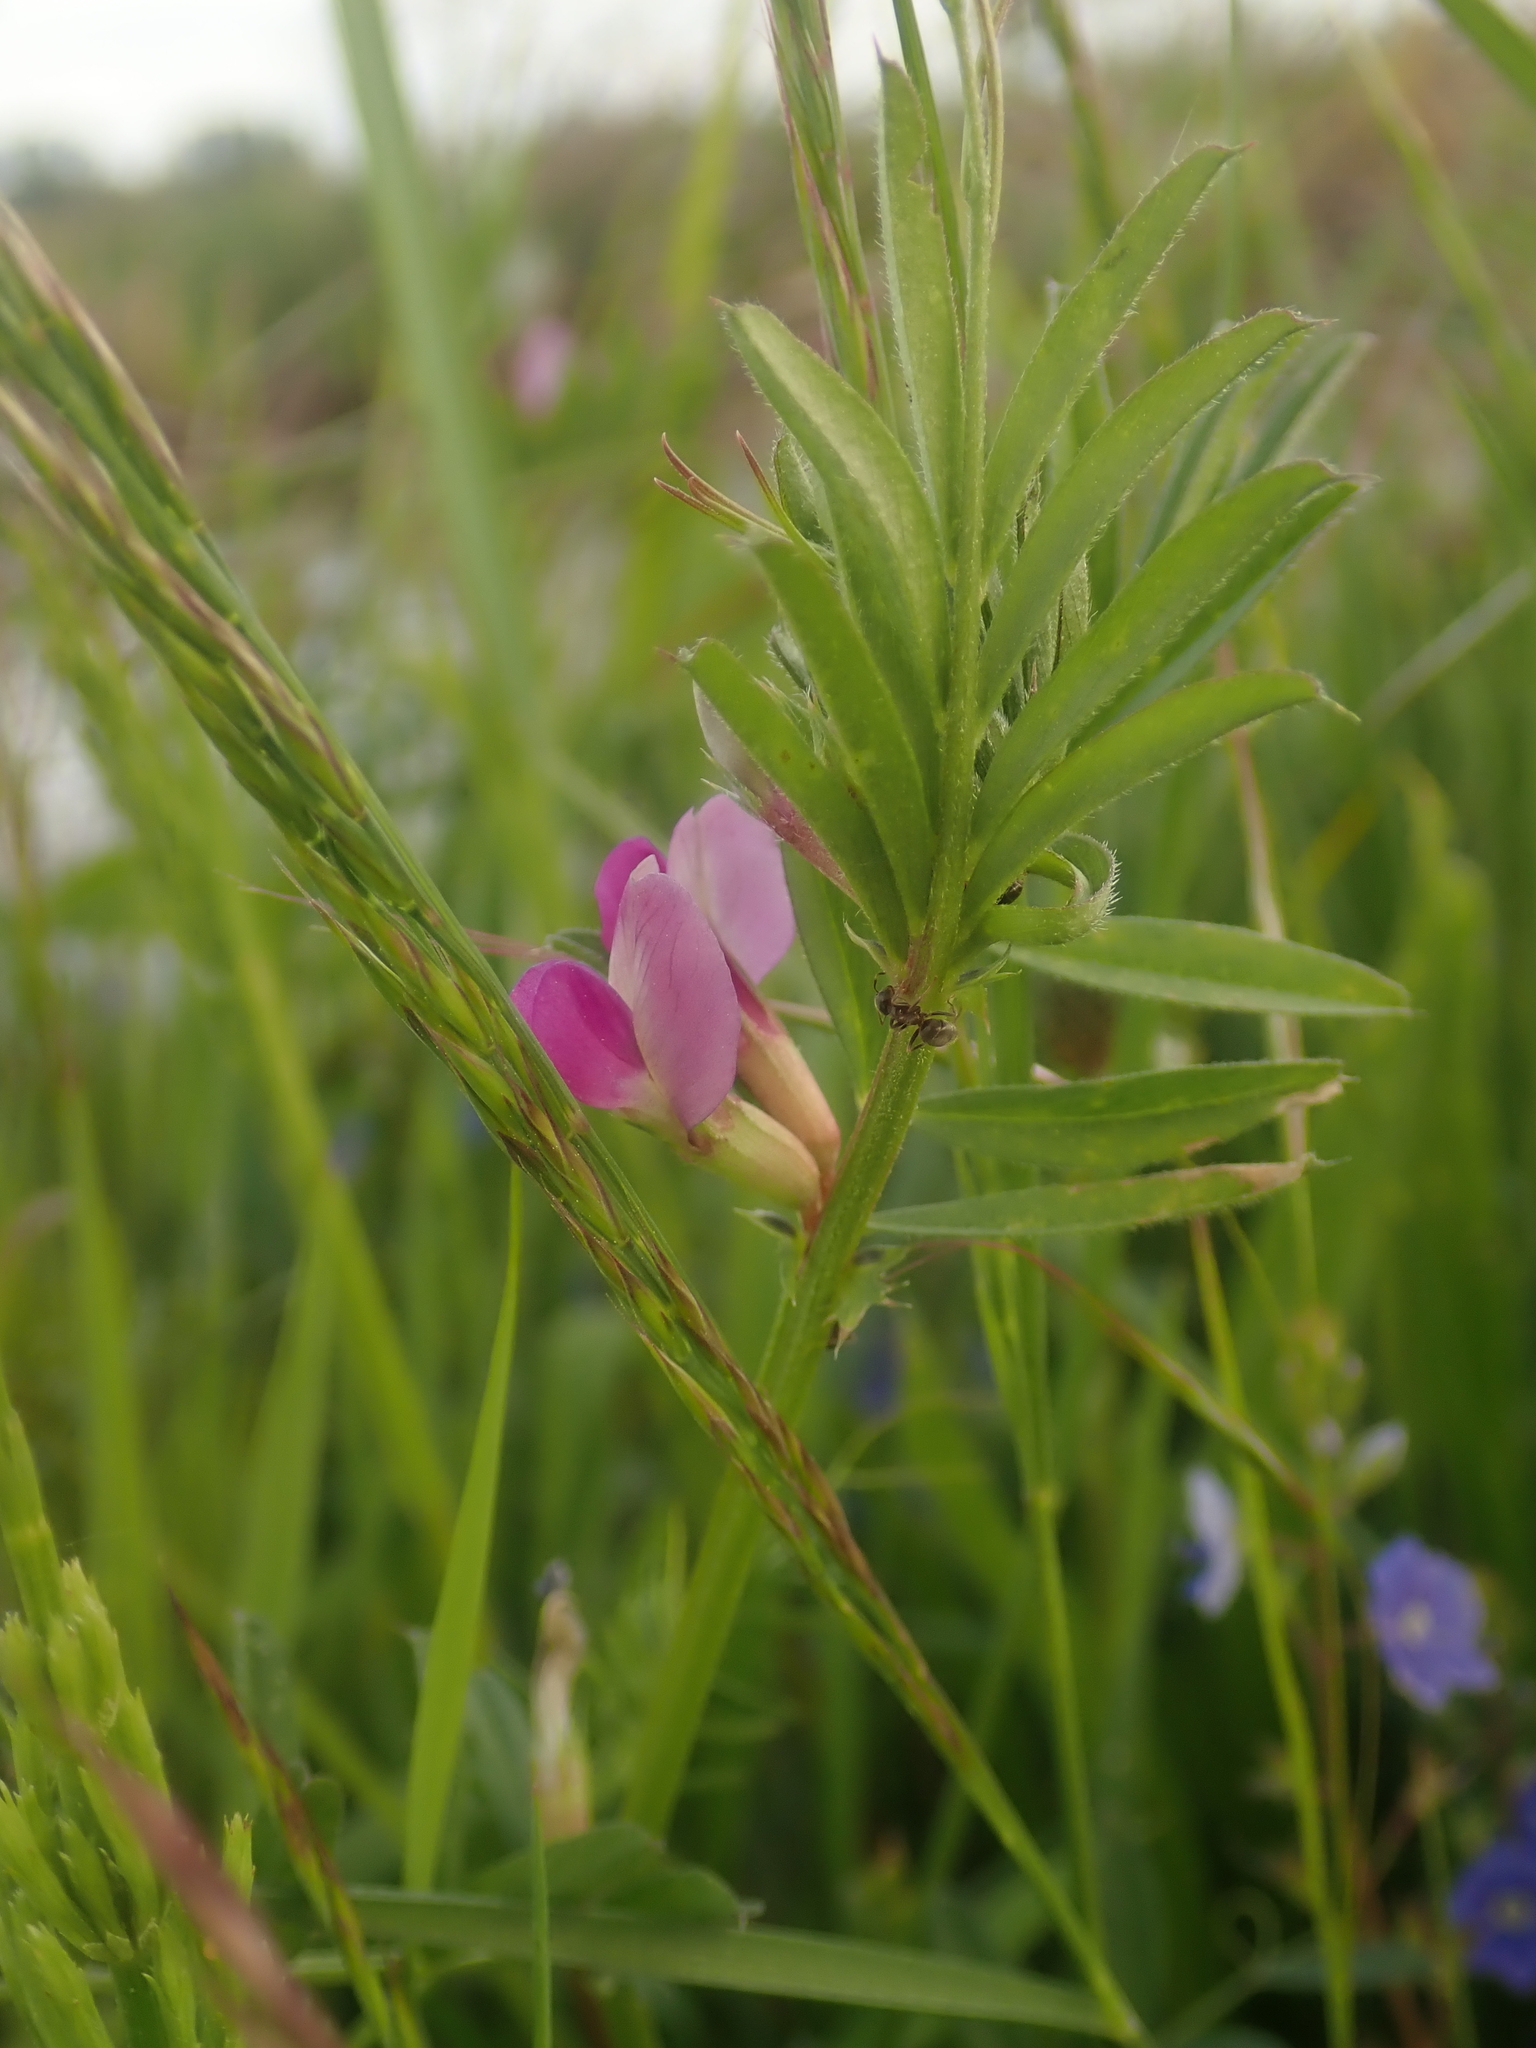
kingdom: Plantae
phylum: Tracheophyta
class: Magnoliopsida
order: Fabales
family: Fabaceae
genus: Vicia
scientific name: Vicia sativa
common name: Garden vetch
